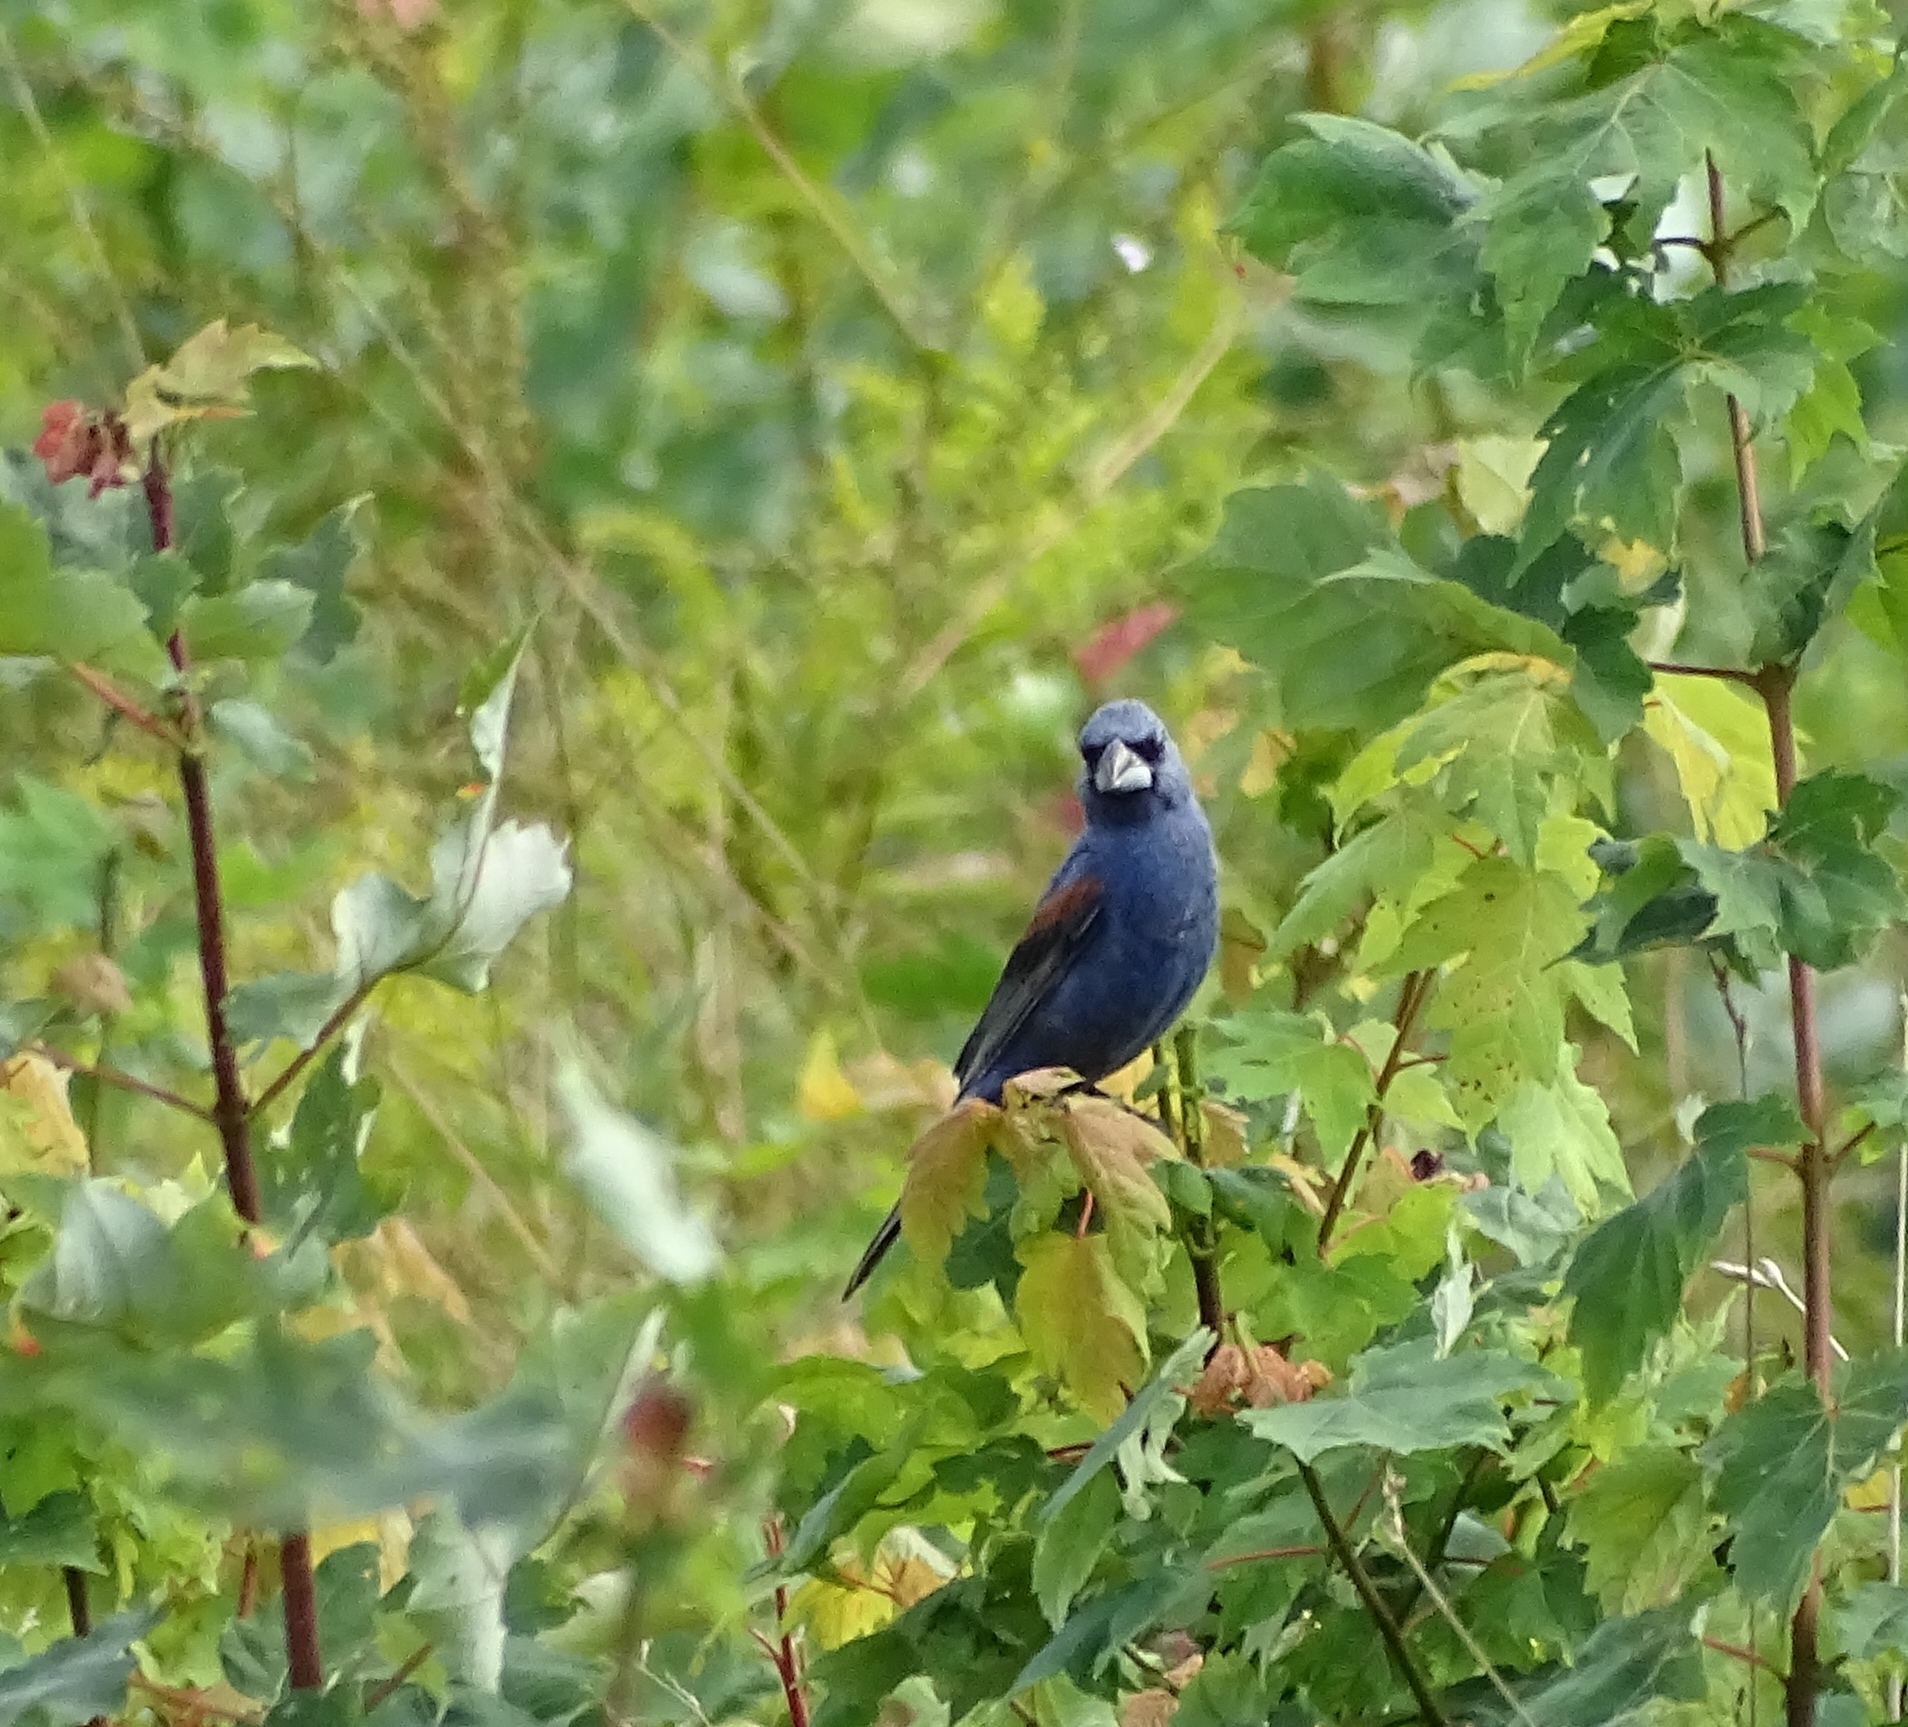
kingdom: Animalia
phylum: Chordata
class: Aves
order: Passeriformes
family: Cardinalidae
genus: Passerina
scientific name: Passerina caerulea
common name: Blue grosbeak
